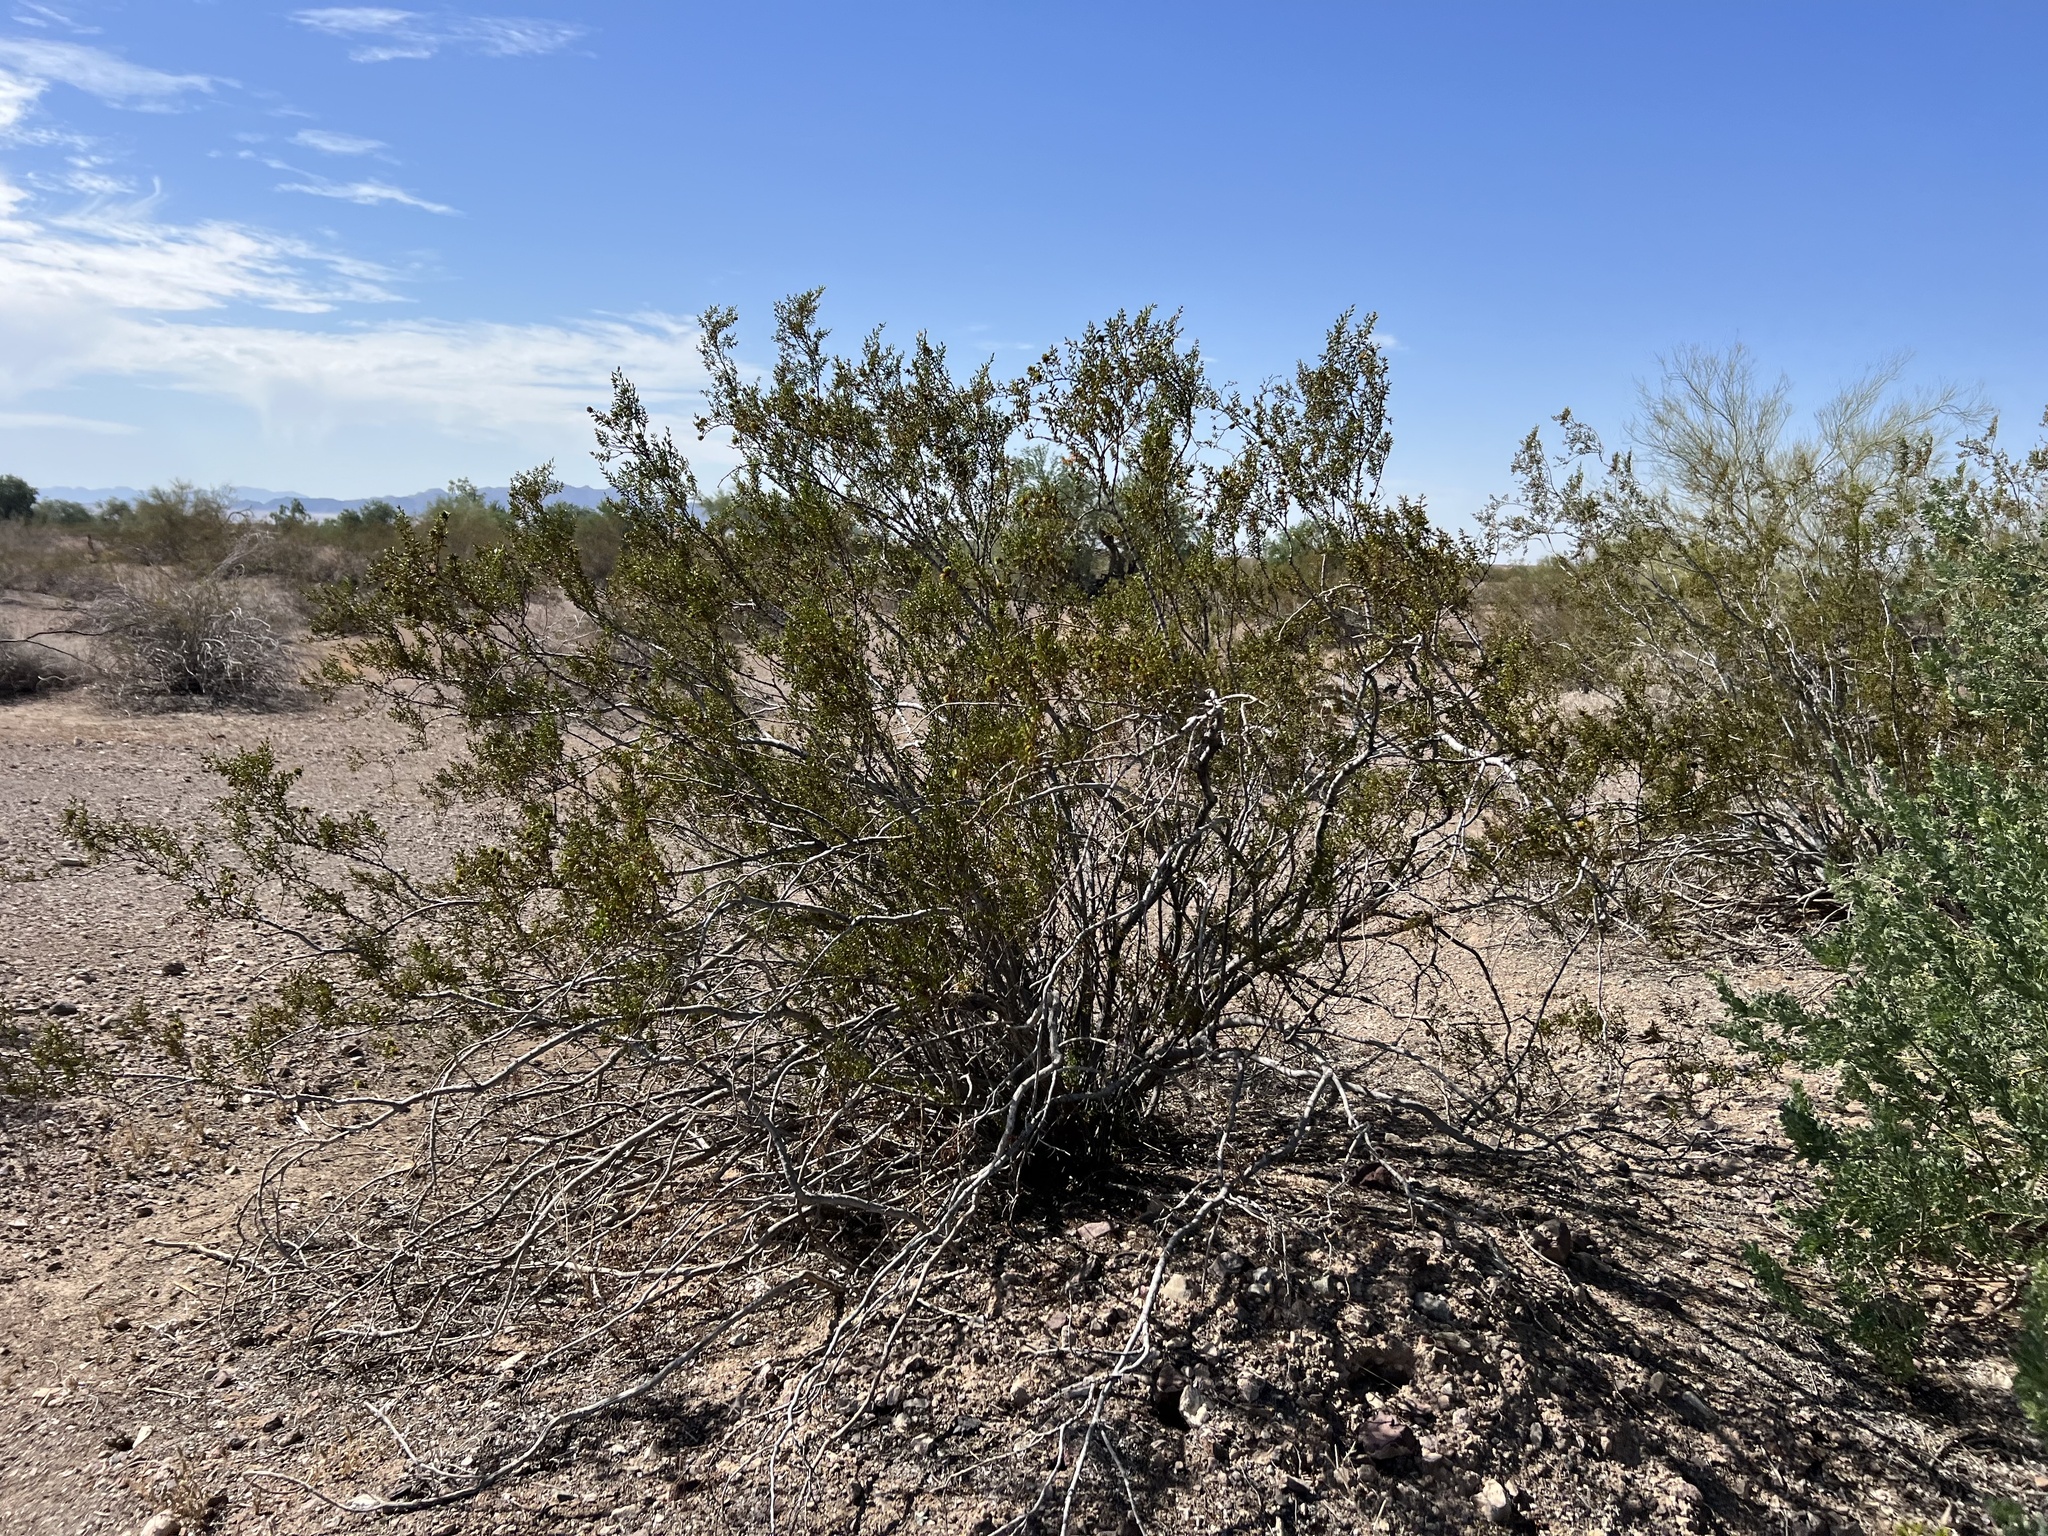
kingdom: Plantae
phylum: Tracheophyta
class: Magnoliopsida
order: Zygophyllales
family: Zygophyllaceae
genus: Larrea
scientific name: Larrea tridentata
